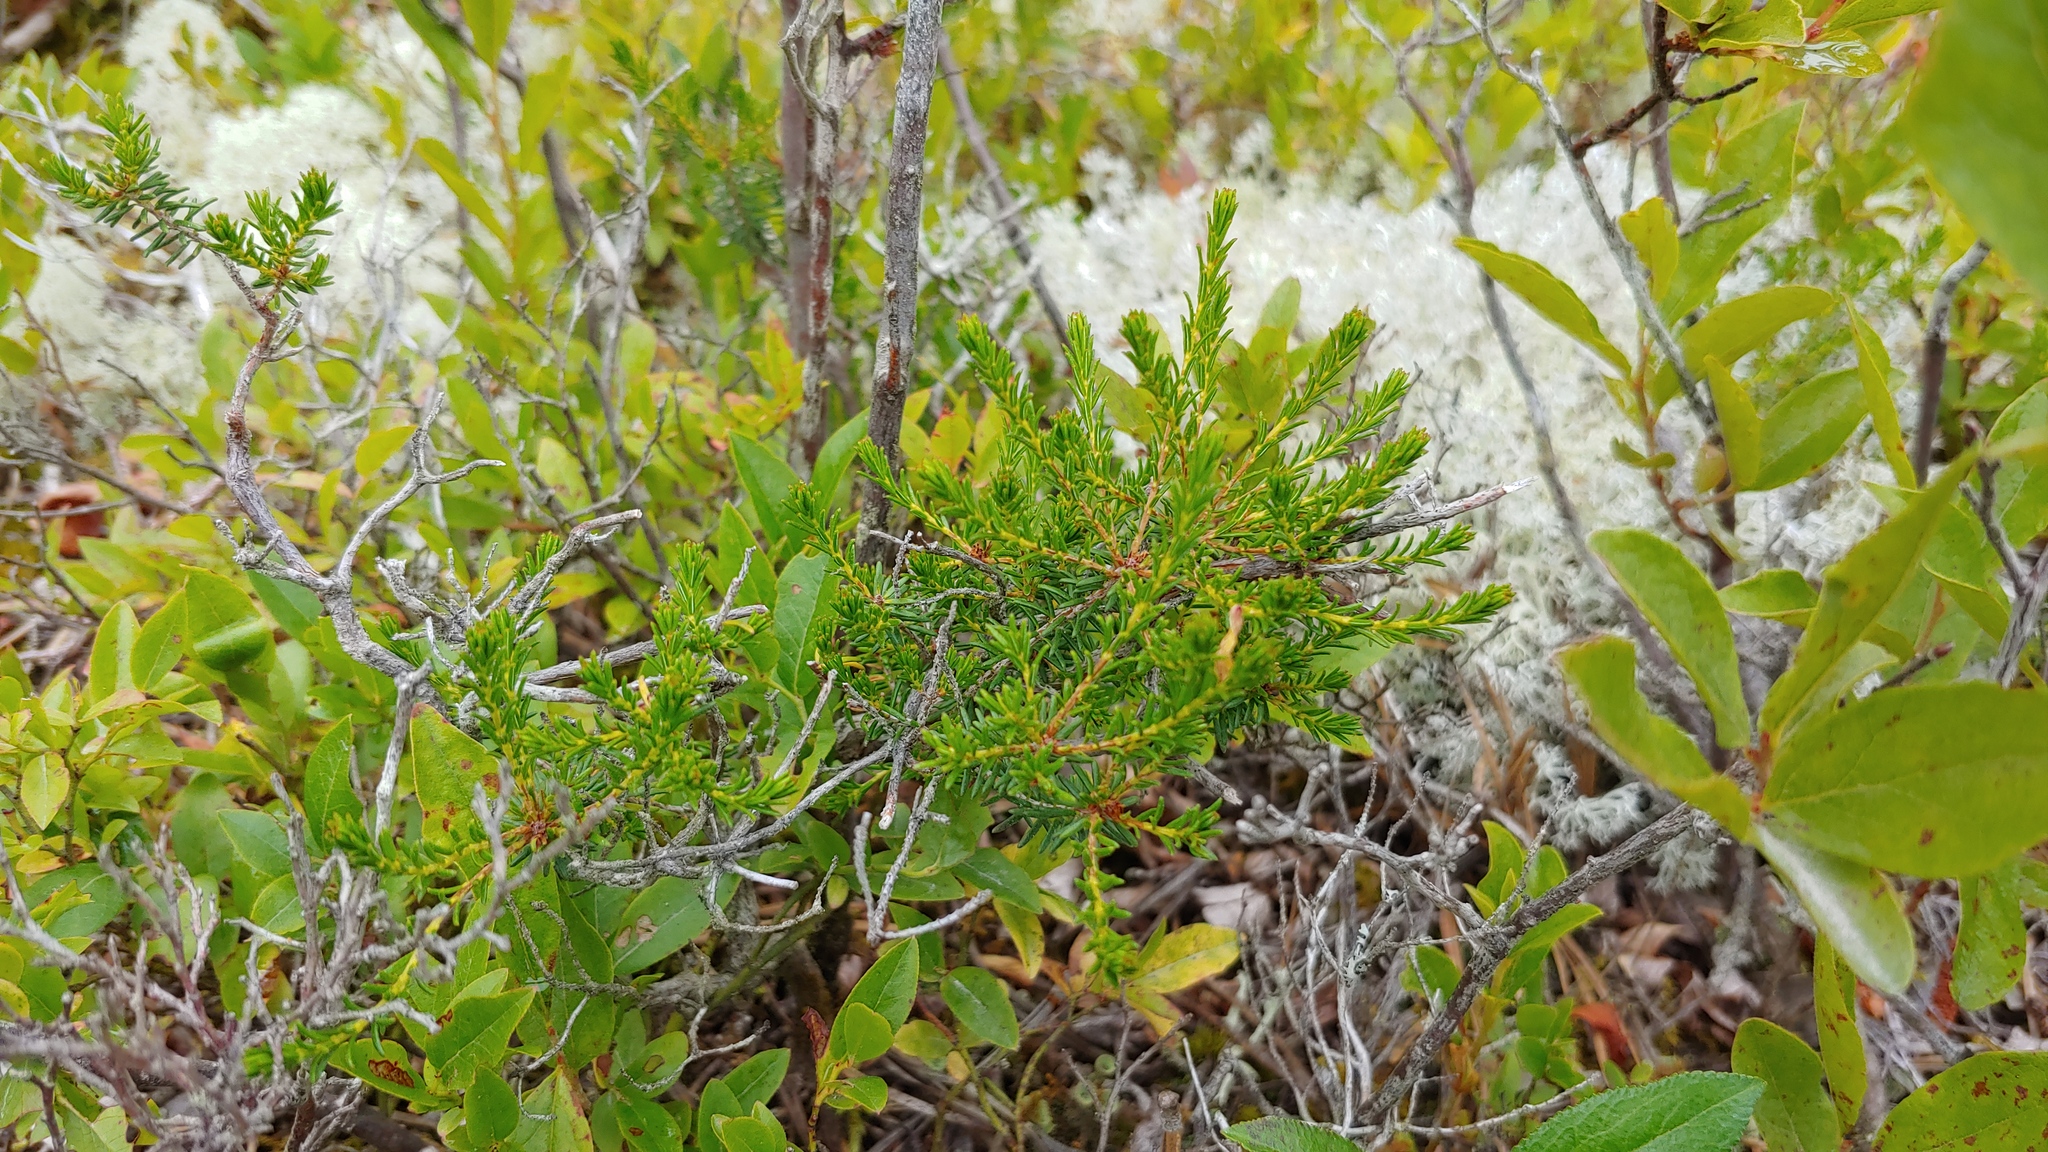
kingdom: Plantae
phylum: Tracheophyta
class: Magnoliopsida
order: Ericales
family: Ericaceae
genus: Corema
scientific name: Corema conradii
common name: Broom-crowberry
